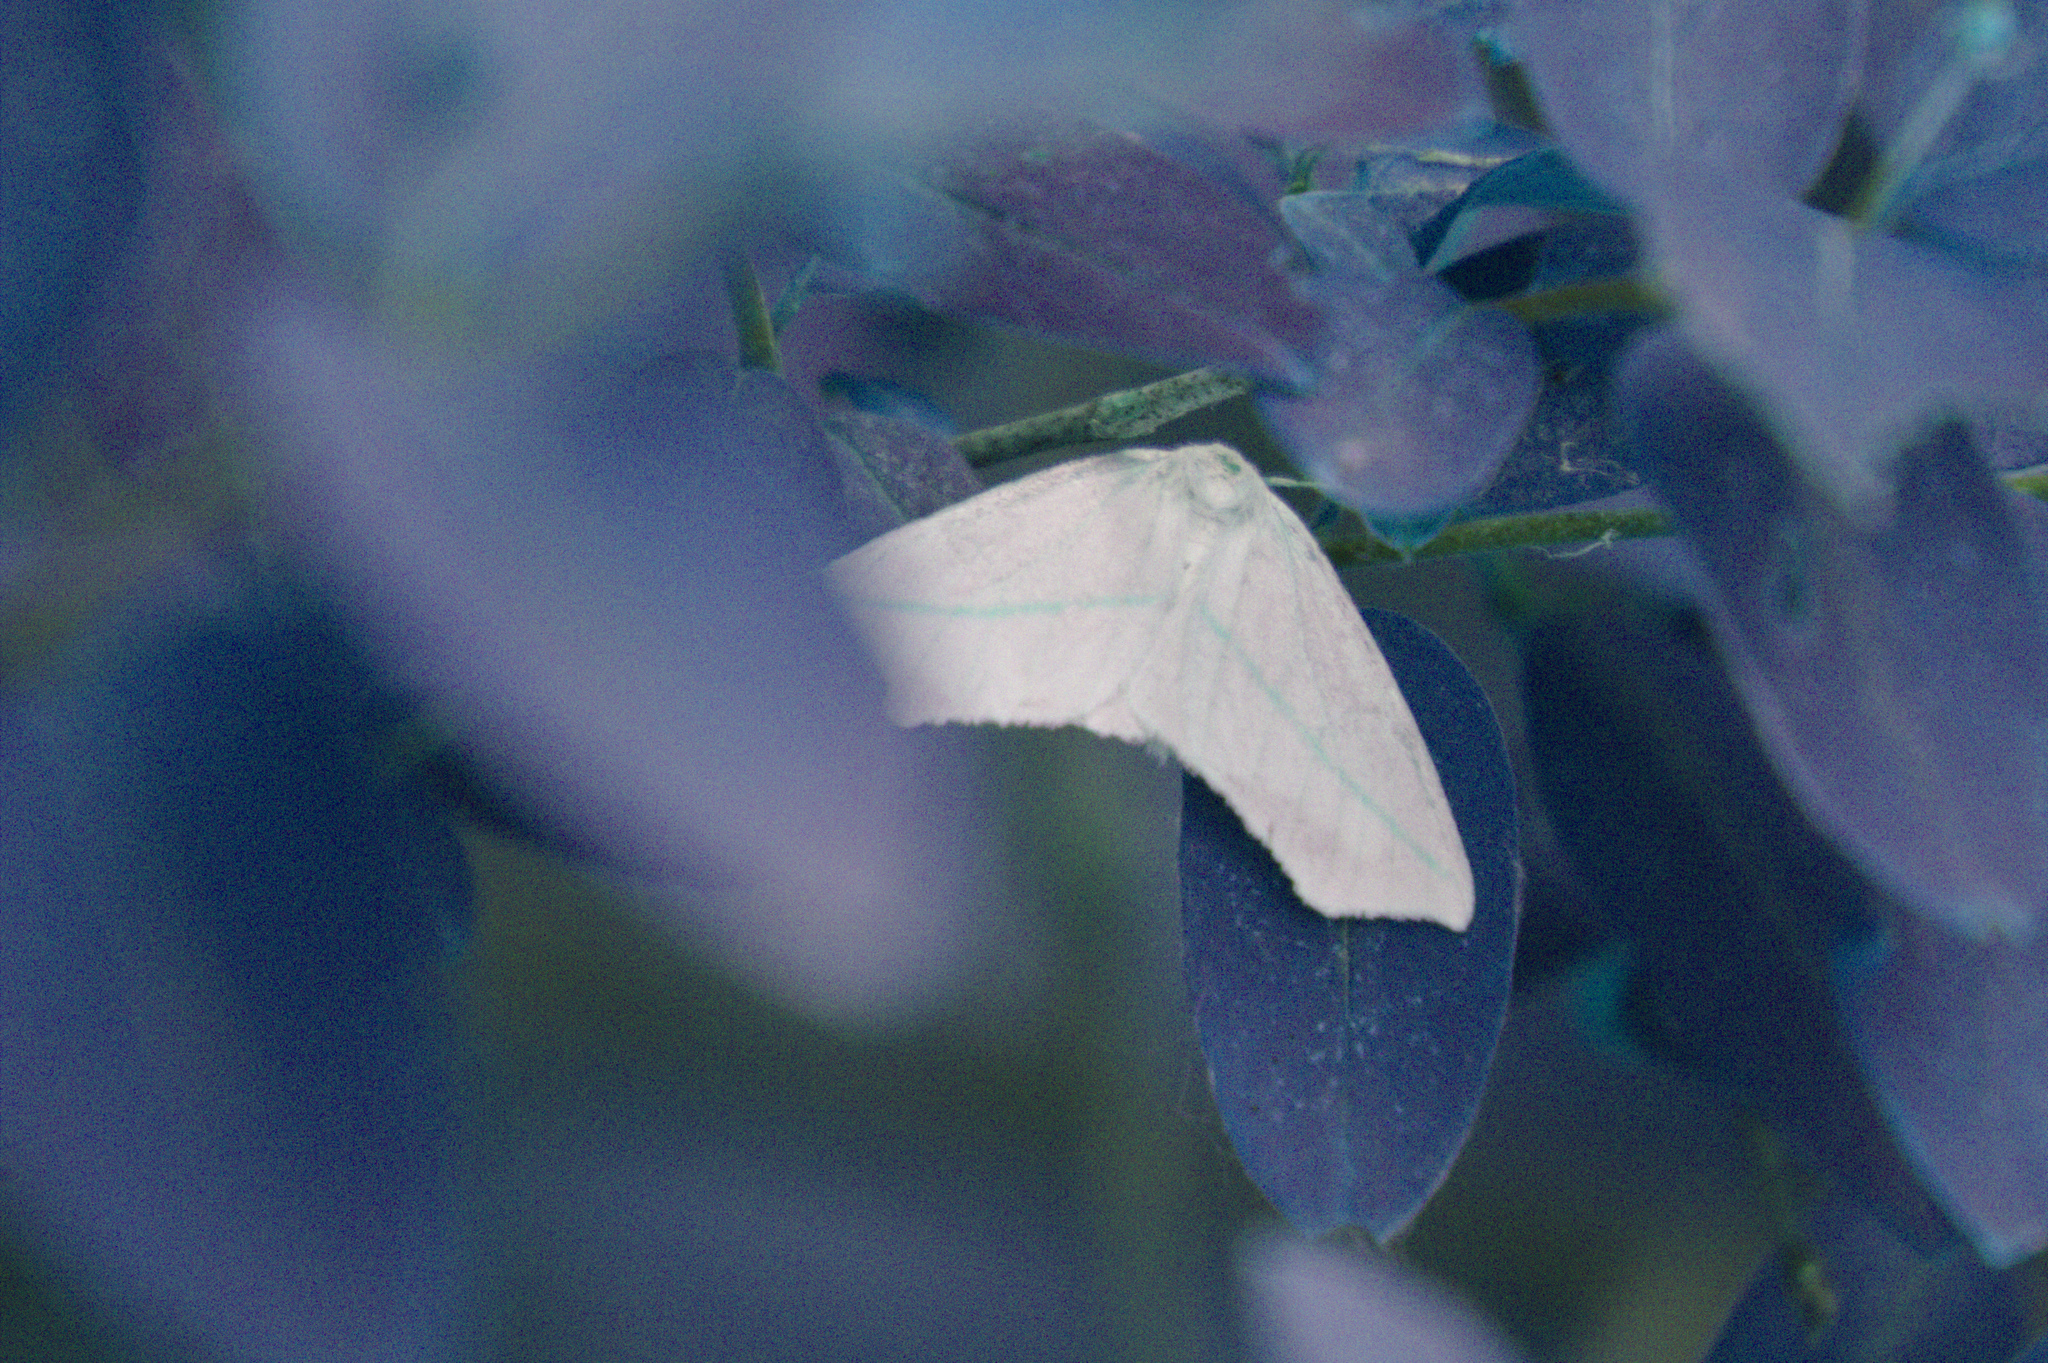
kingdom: Animalia
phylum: Arthropoda
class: Insecta
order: Lepidoptera
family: Geometridae
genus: Tetracis
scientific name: Tetracis cachexiata
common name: White slant-line
